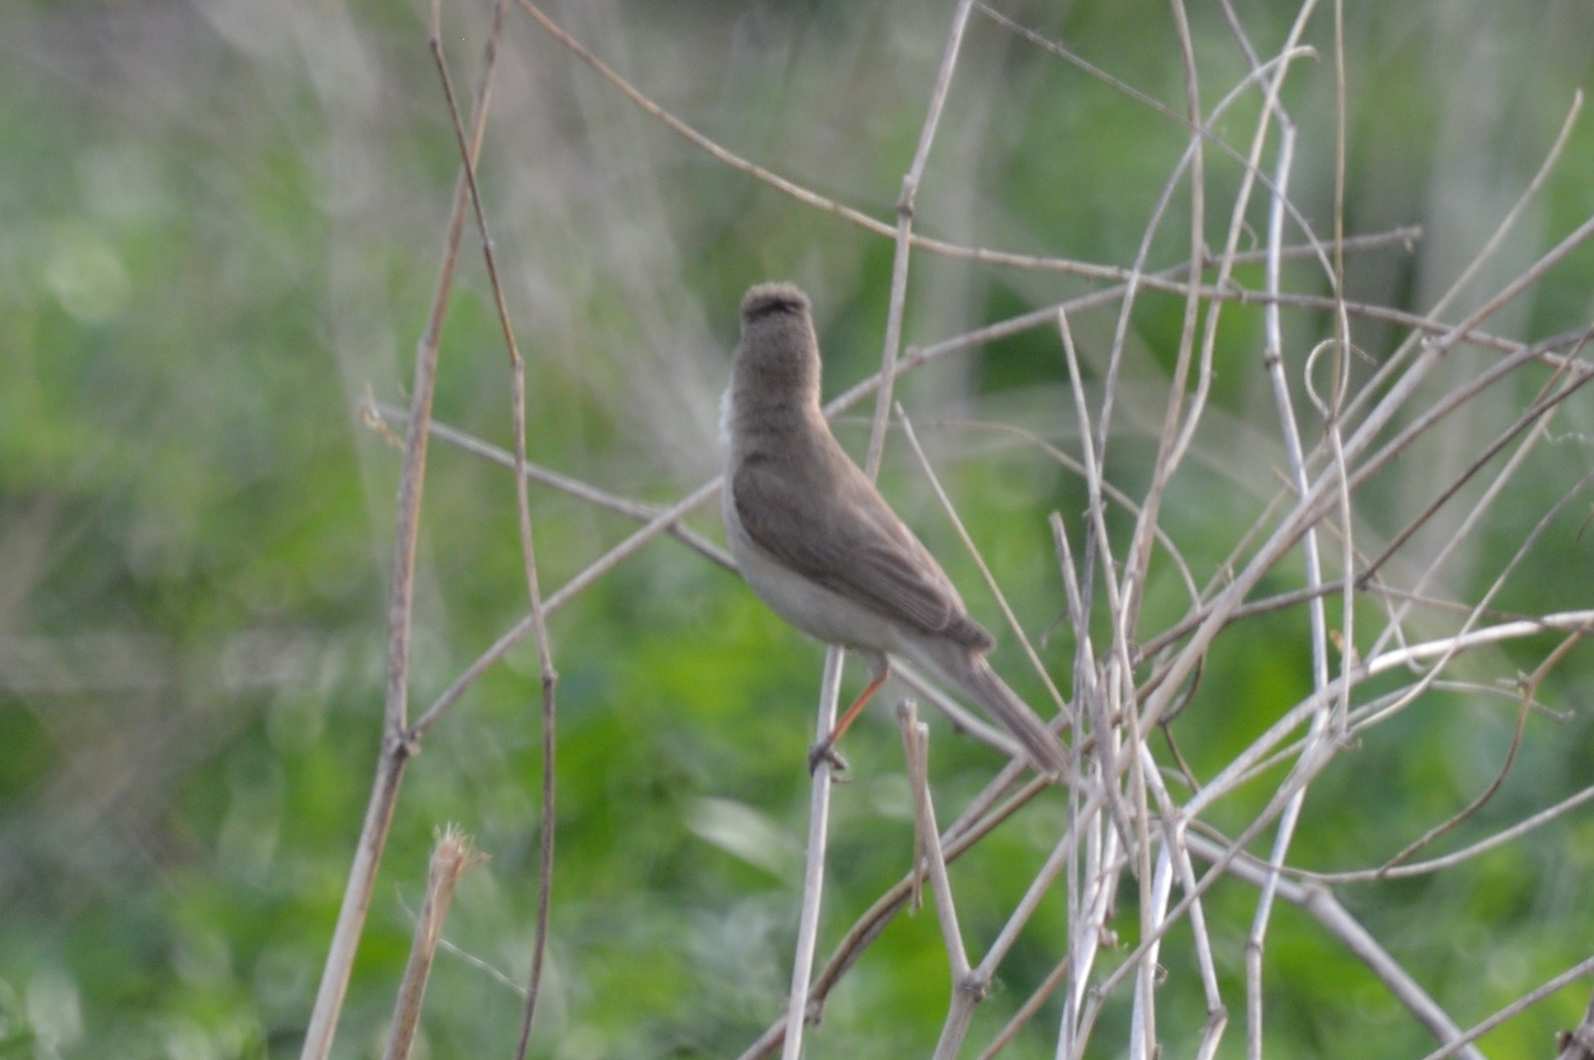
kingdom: Animalia
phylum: Chordata
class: Aves
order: Passeriformes
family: Acrocephalidae
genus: Iduna
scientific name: Iduna caligata
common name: Booted warbler
